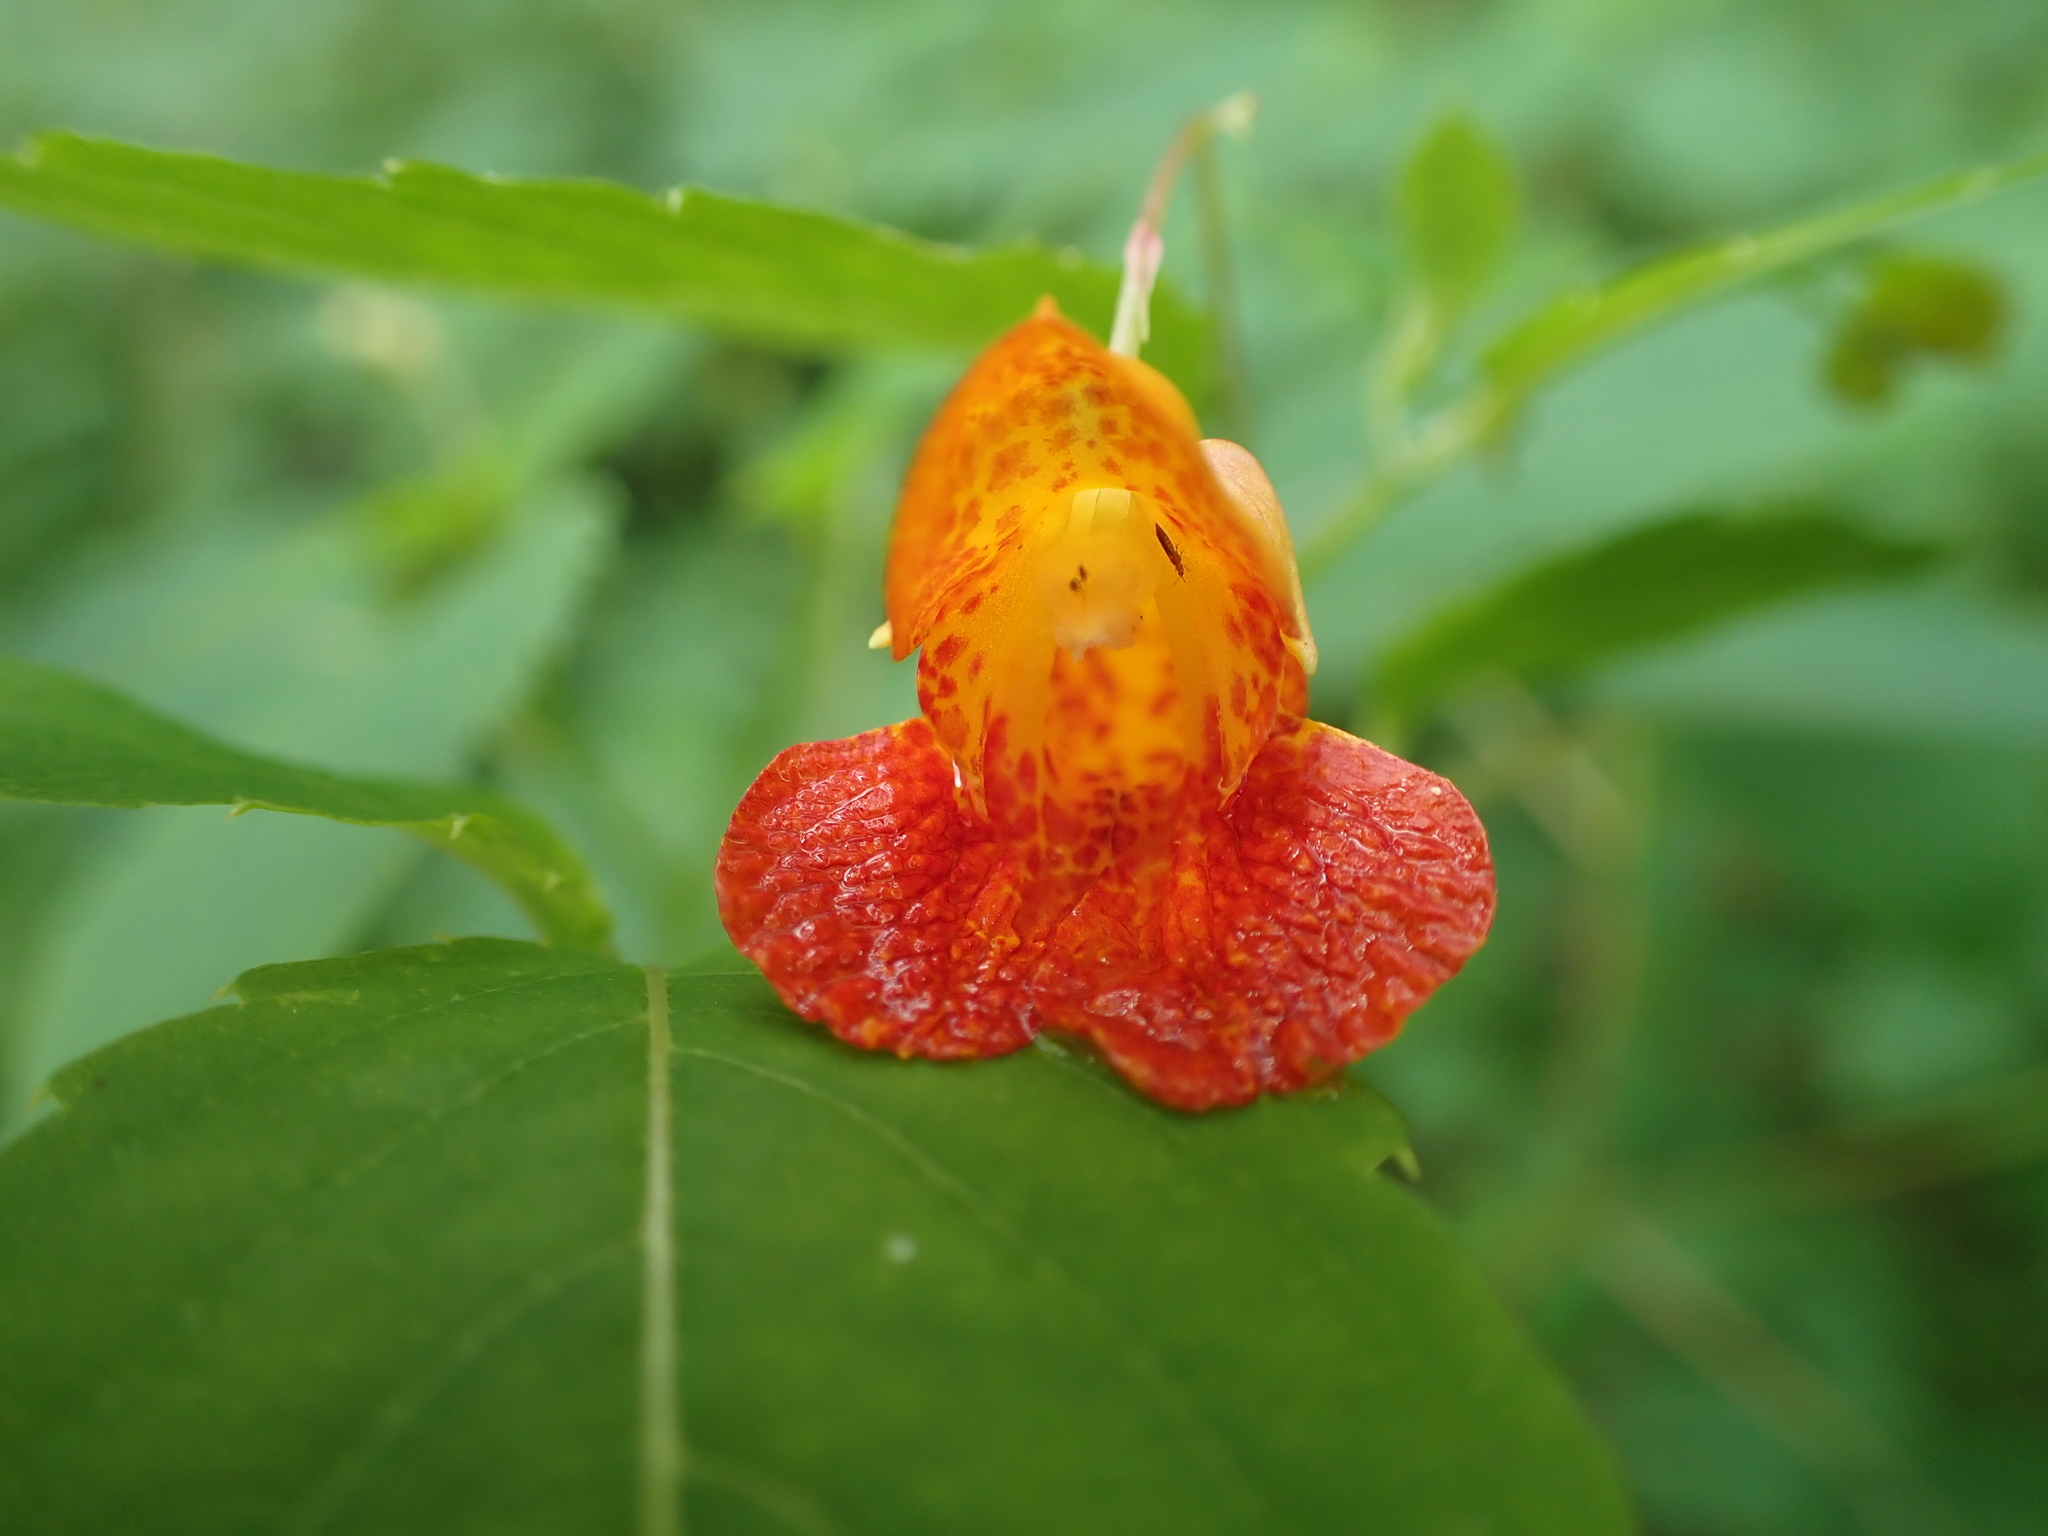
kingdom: Plantae
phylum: Tracheophyta
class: Magnoliopsida
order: Ericales
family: Balsaminaceae
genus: Impatiens
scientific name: Impatiens capensis
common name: Orange balsam
